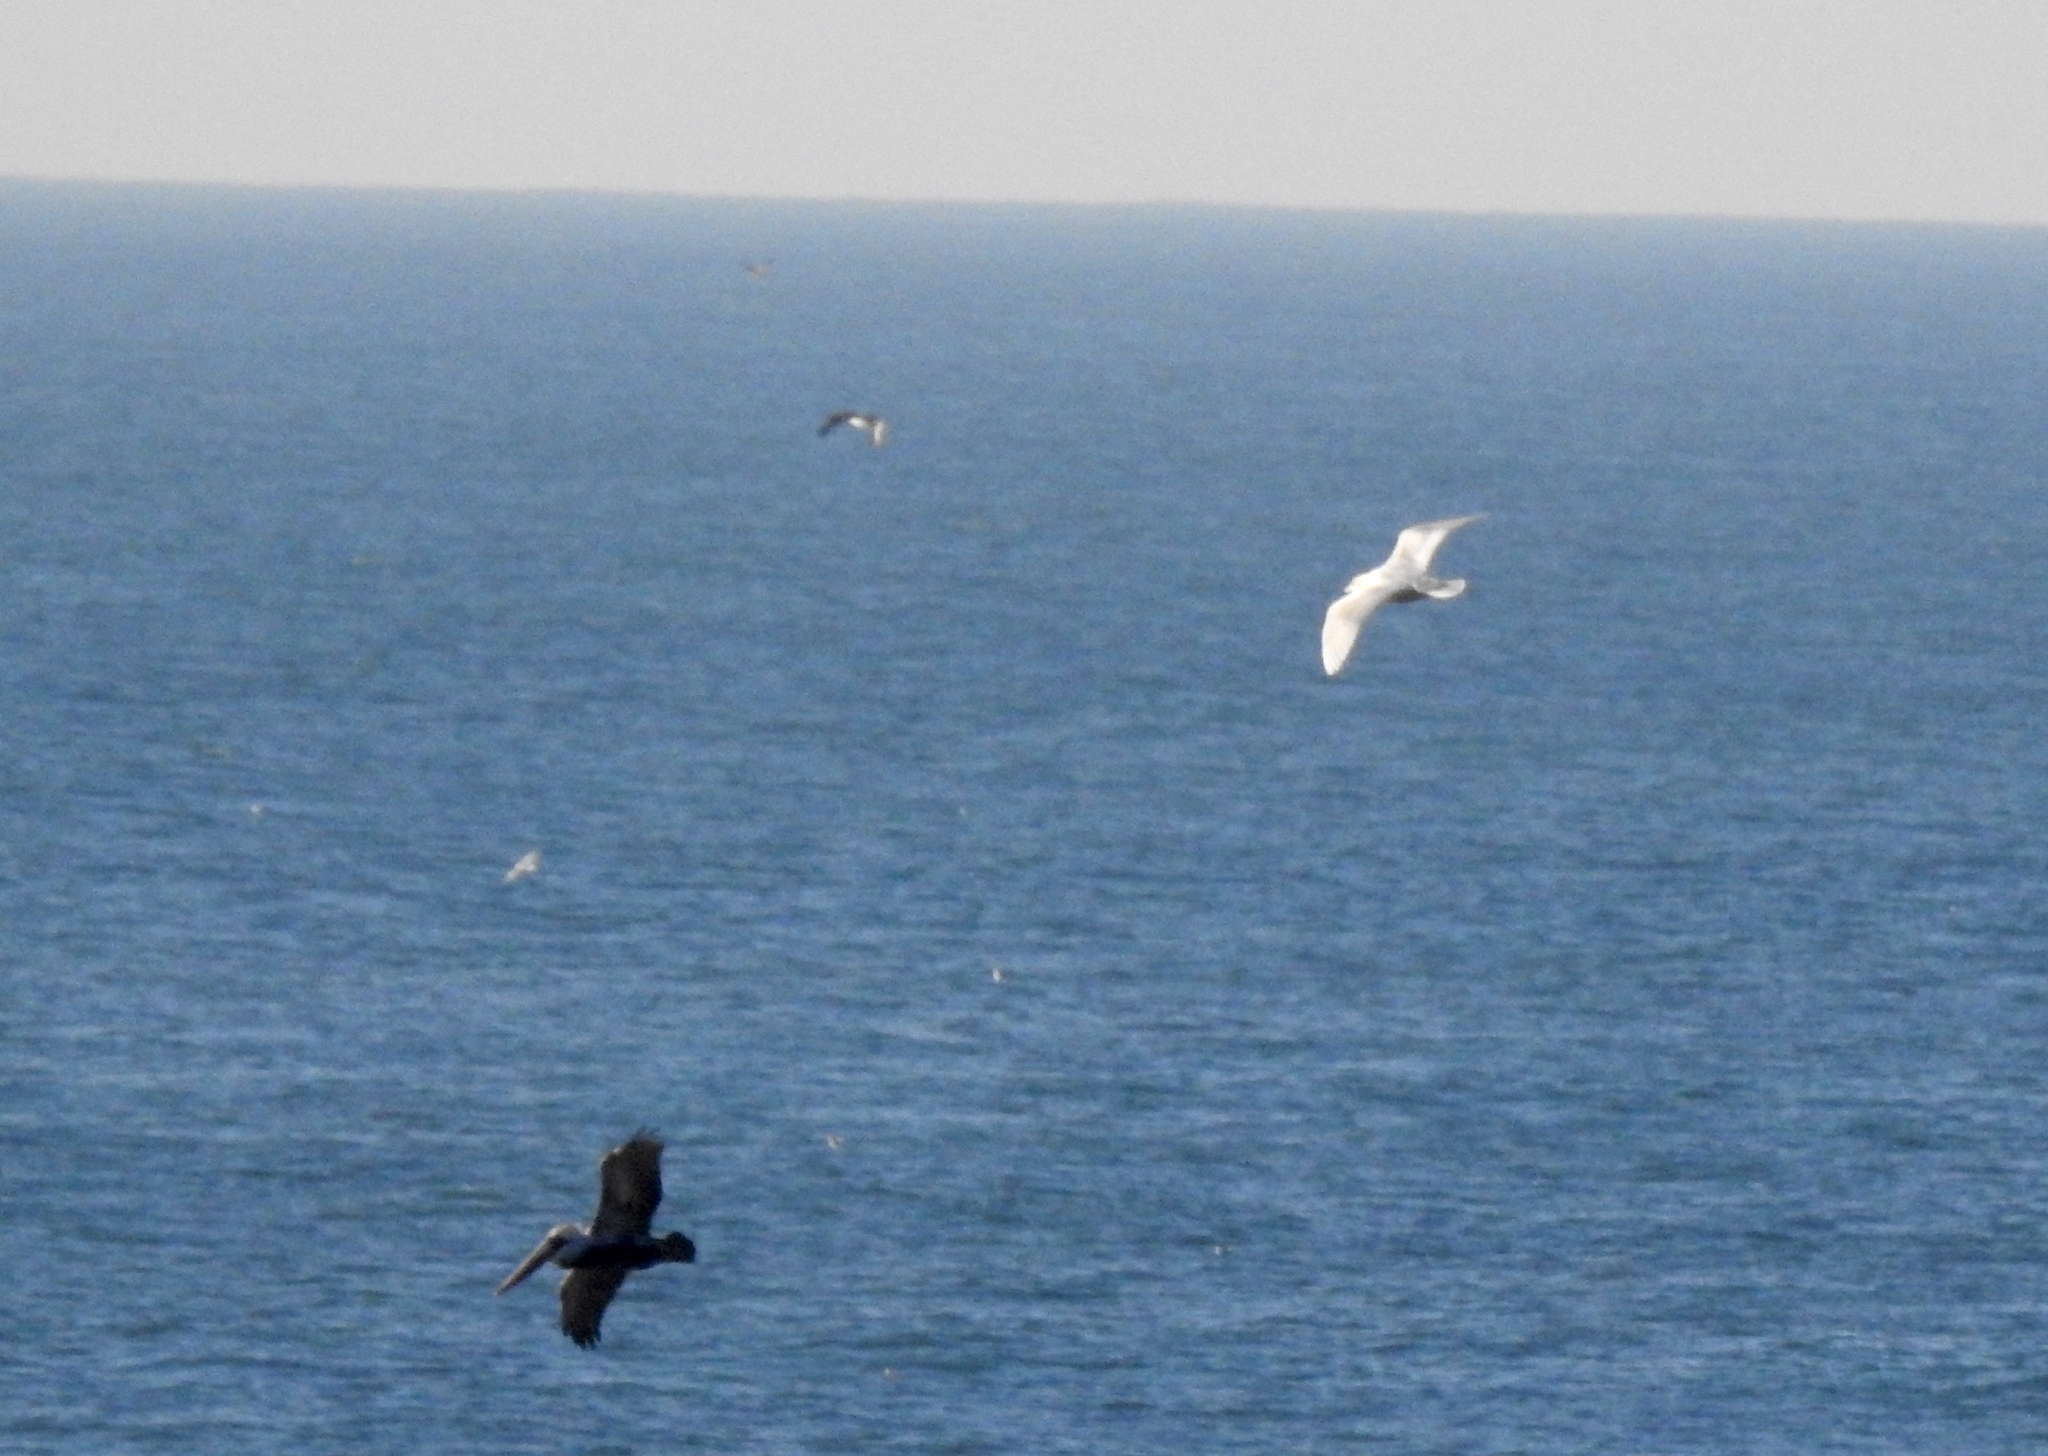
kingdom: Animalia
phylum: Chordata
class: Aves
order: Charadriiformes
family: Laridae
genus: Larus
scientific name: Larus hyperboreus
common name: Glaucous gull
